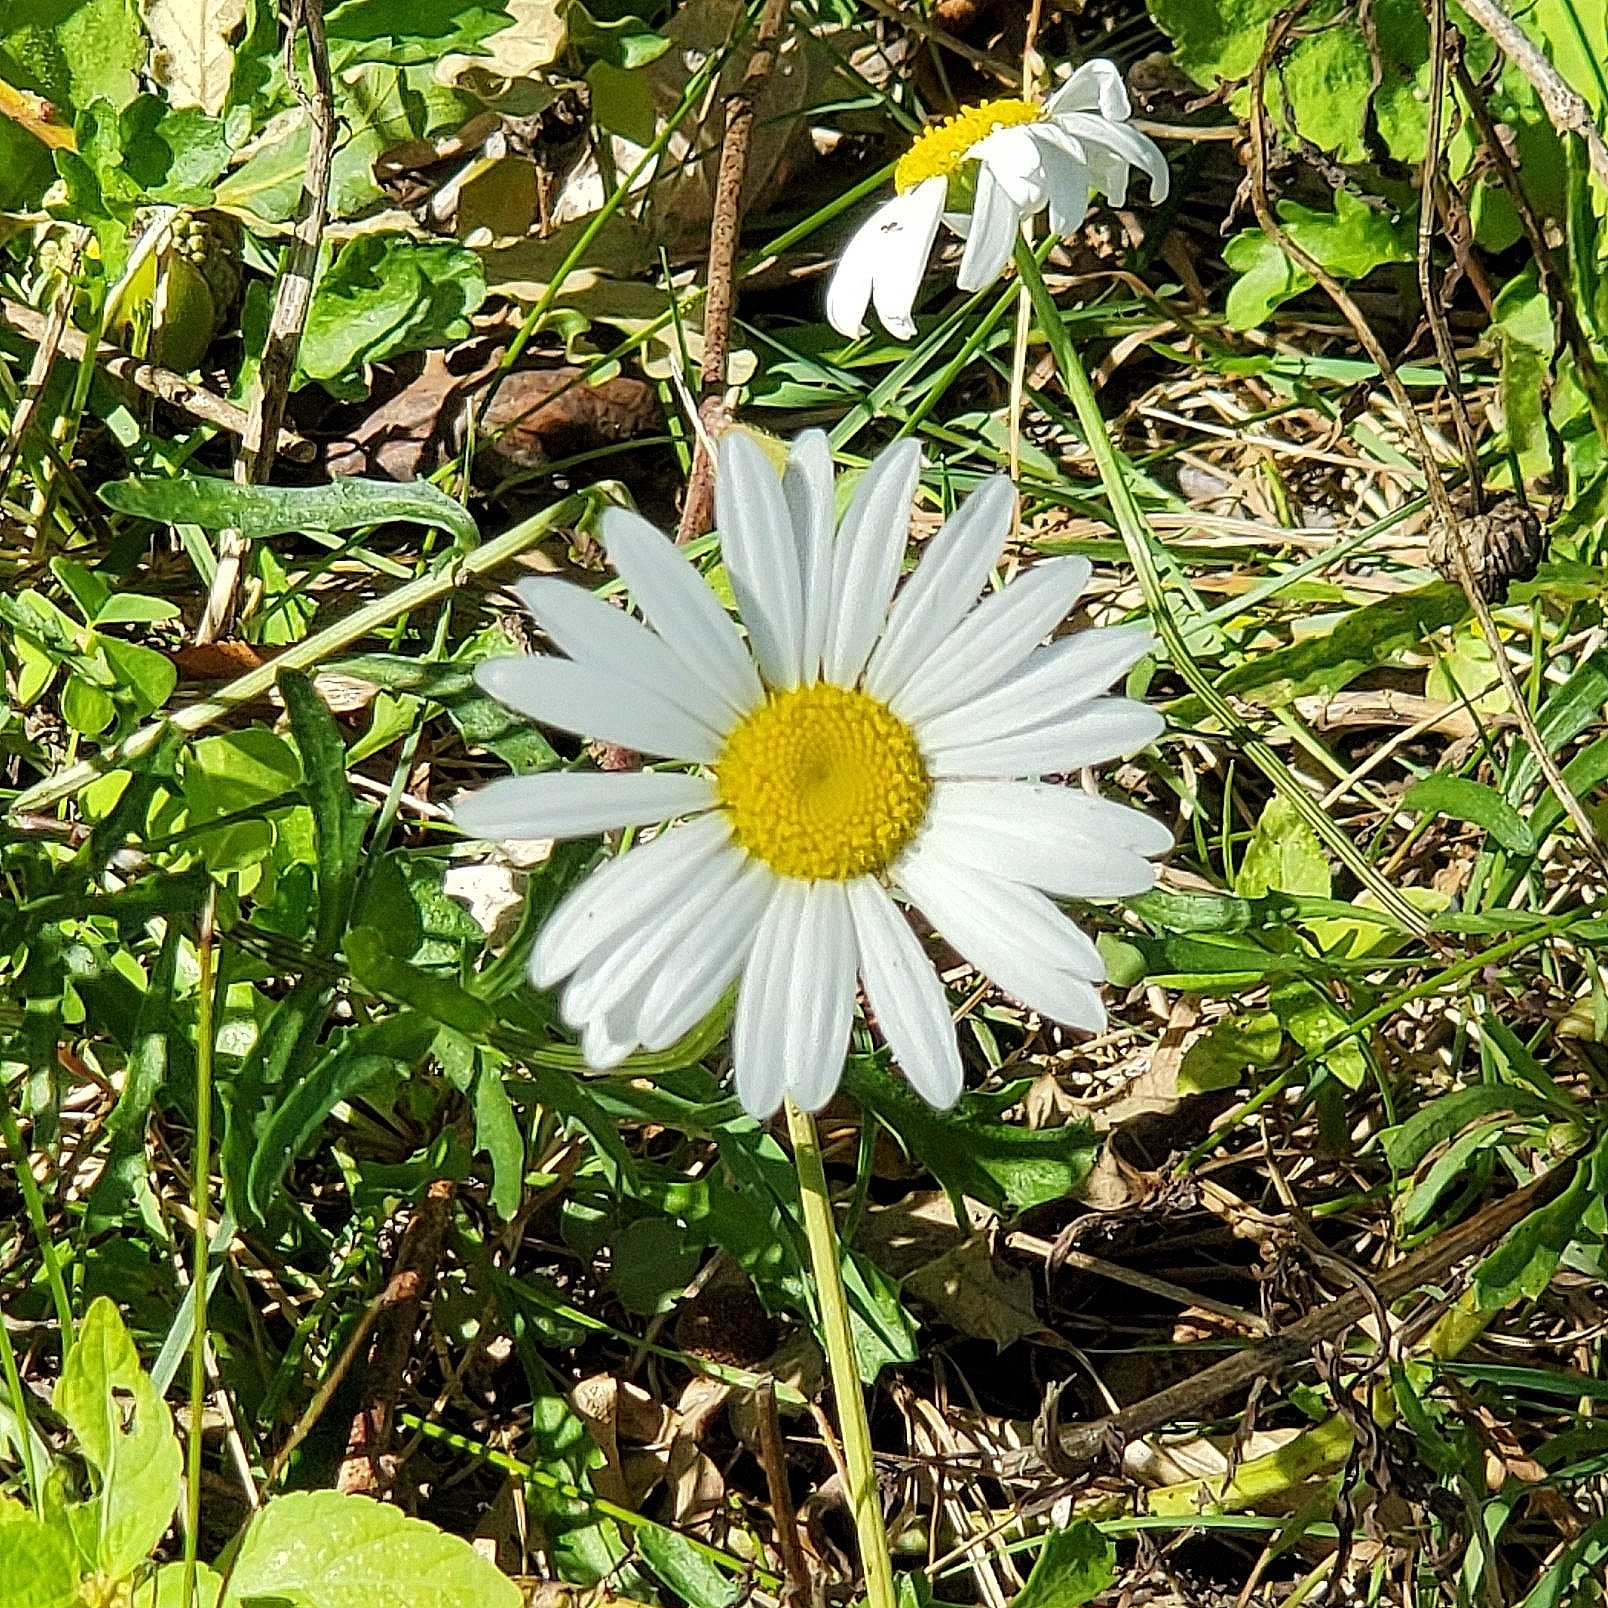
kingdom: Plantae
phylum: Tracheophyta
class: Magnoliopsida
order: Asterales
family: Asteraceae
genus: Leucanthemum
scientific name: Leucanthemum vulgare
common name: Oxeye daisy
